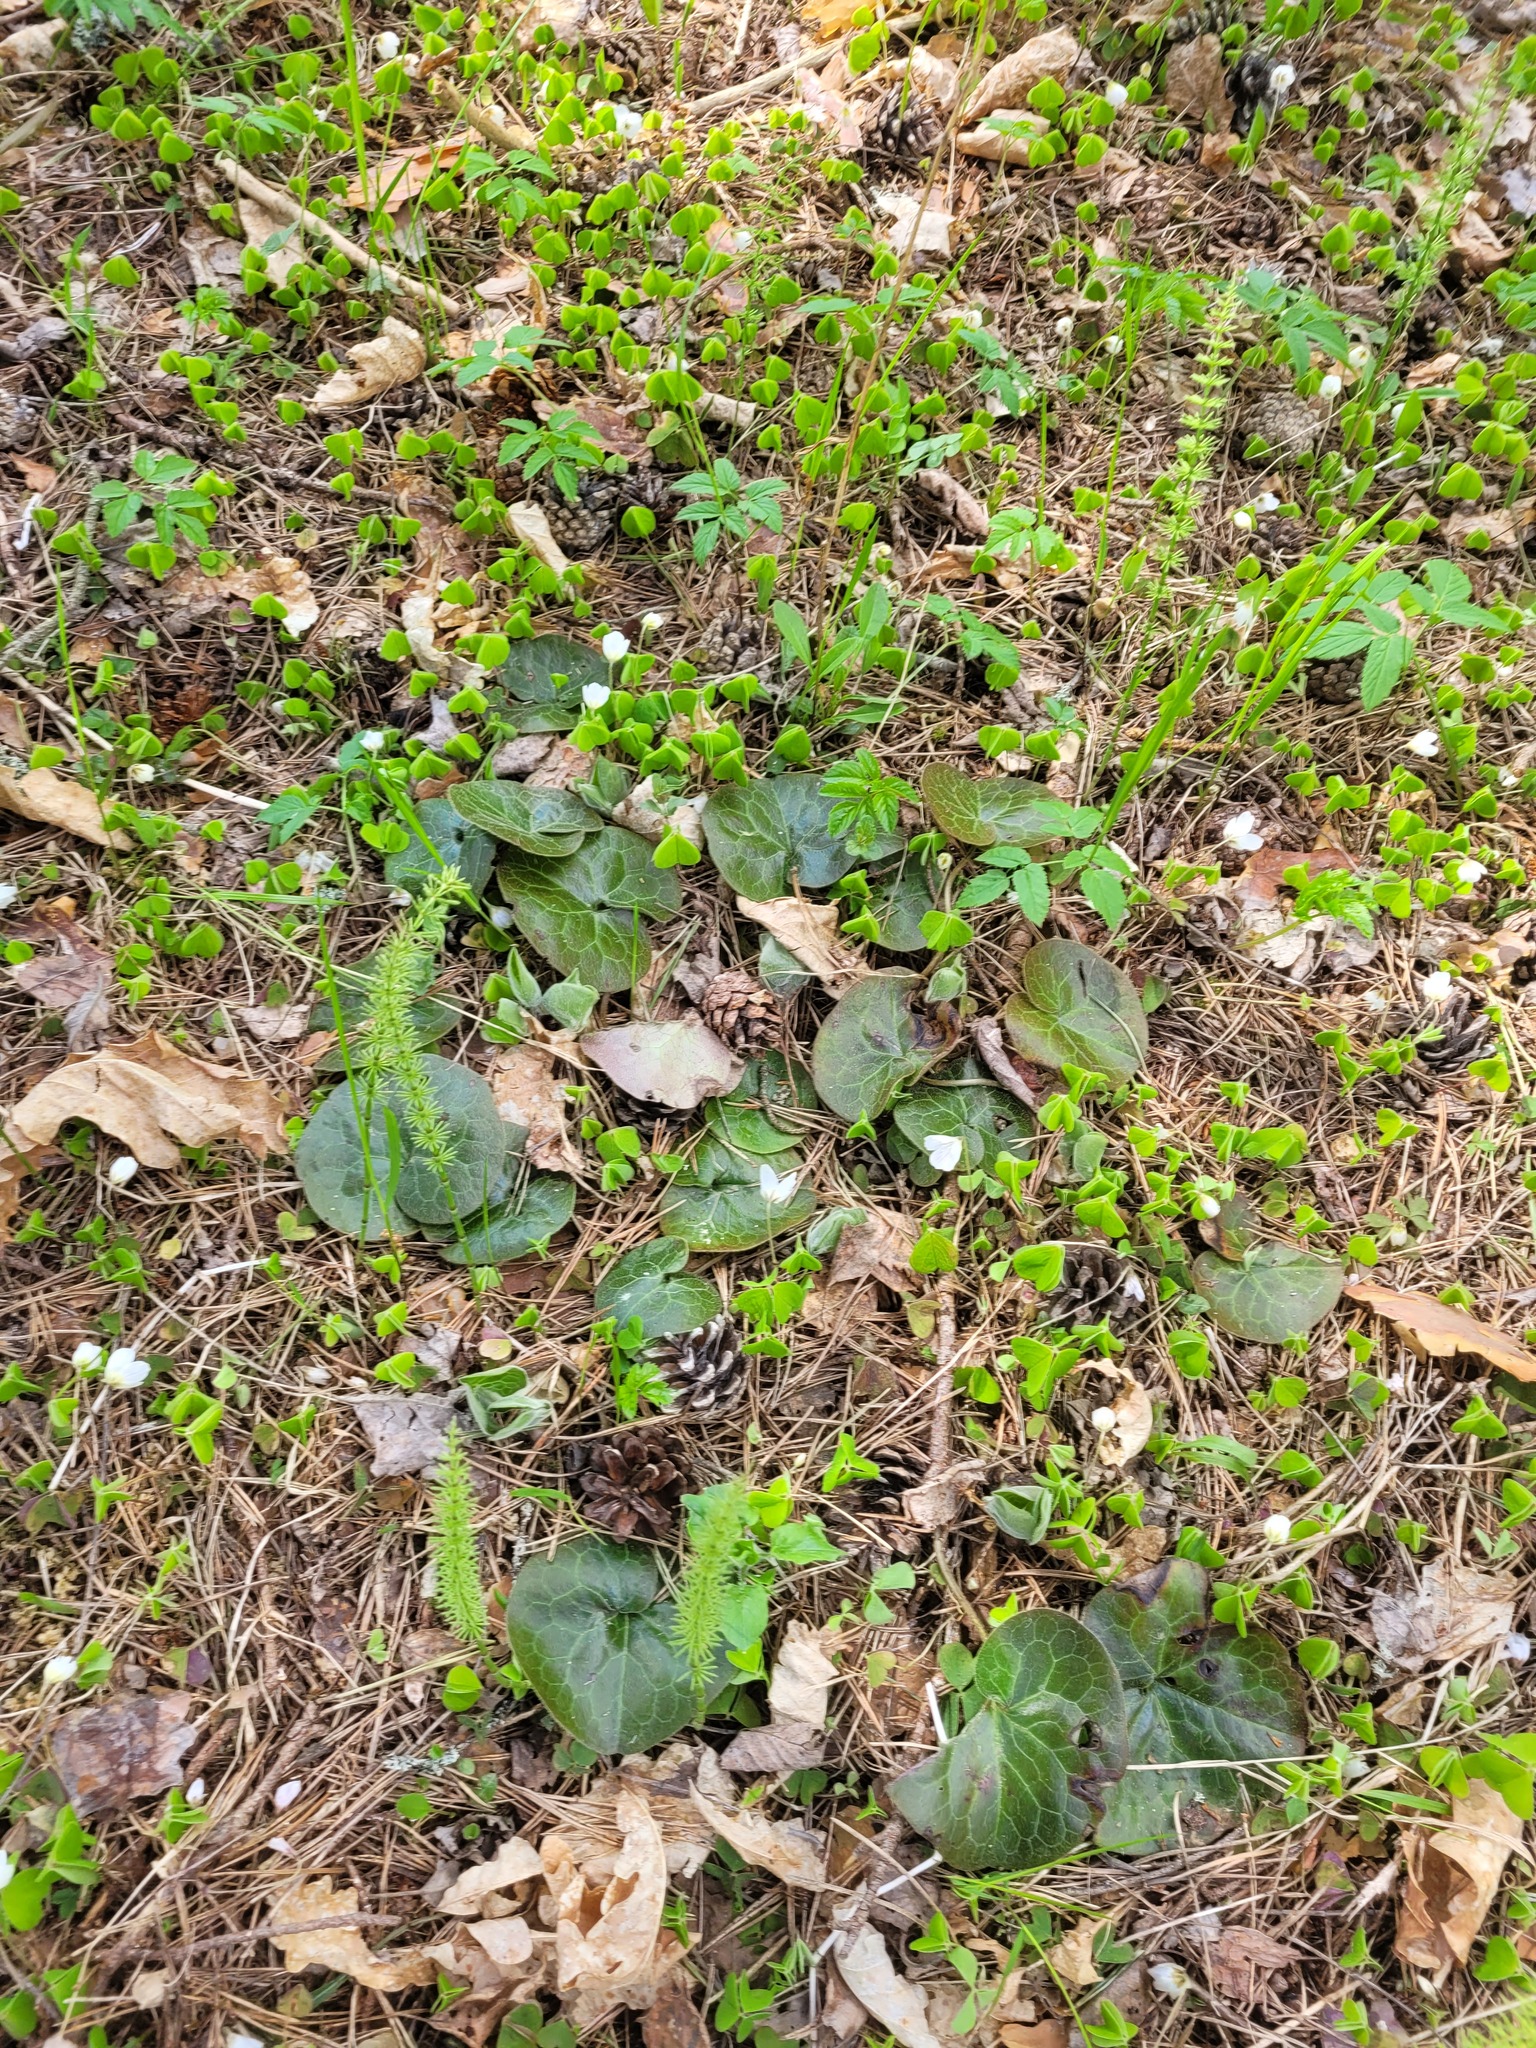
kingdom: Plantae
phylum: Tracheophyta
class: Magnoliopsida
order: Piperales
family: Aristolochiaceae
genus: Asarum
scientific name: Asarum europaeum
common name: Asarabacca
